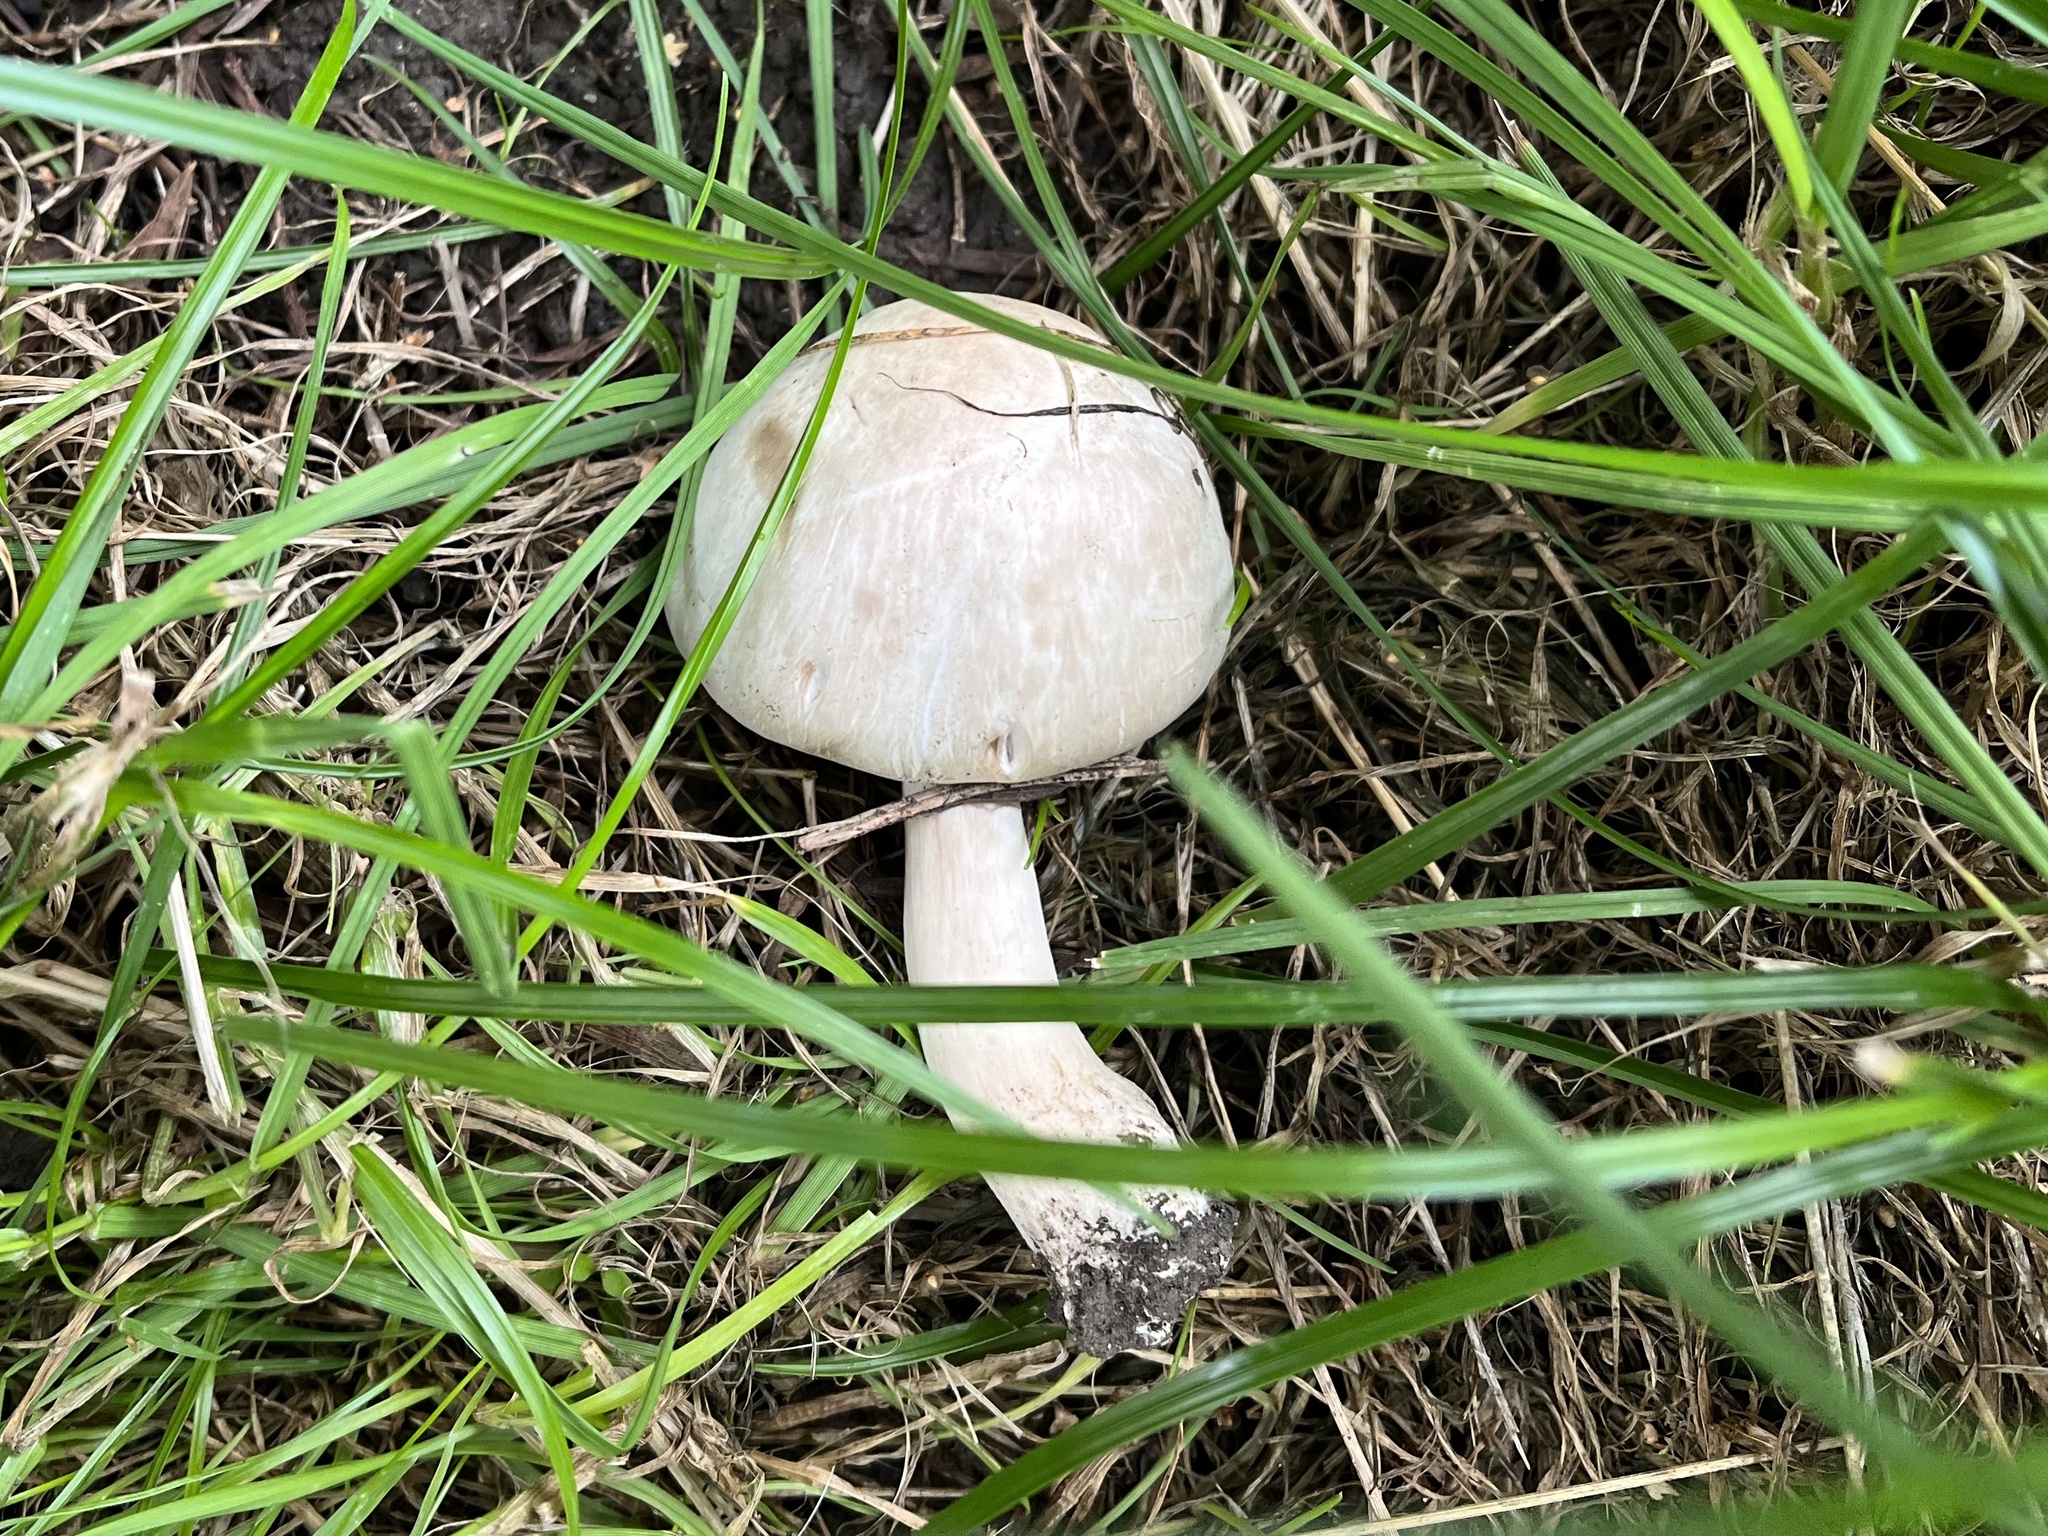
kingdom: Fungi
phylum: Basidiomycota
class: Agaricomycetes
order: Agaricales
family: Agaricaceae
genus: Agaricus
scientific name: Agaricus xanthodermus
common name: Yellow stainer
